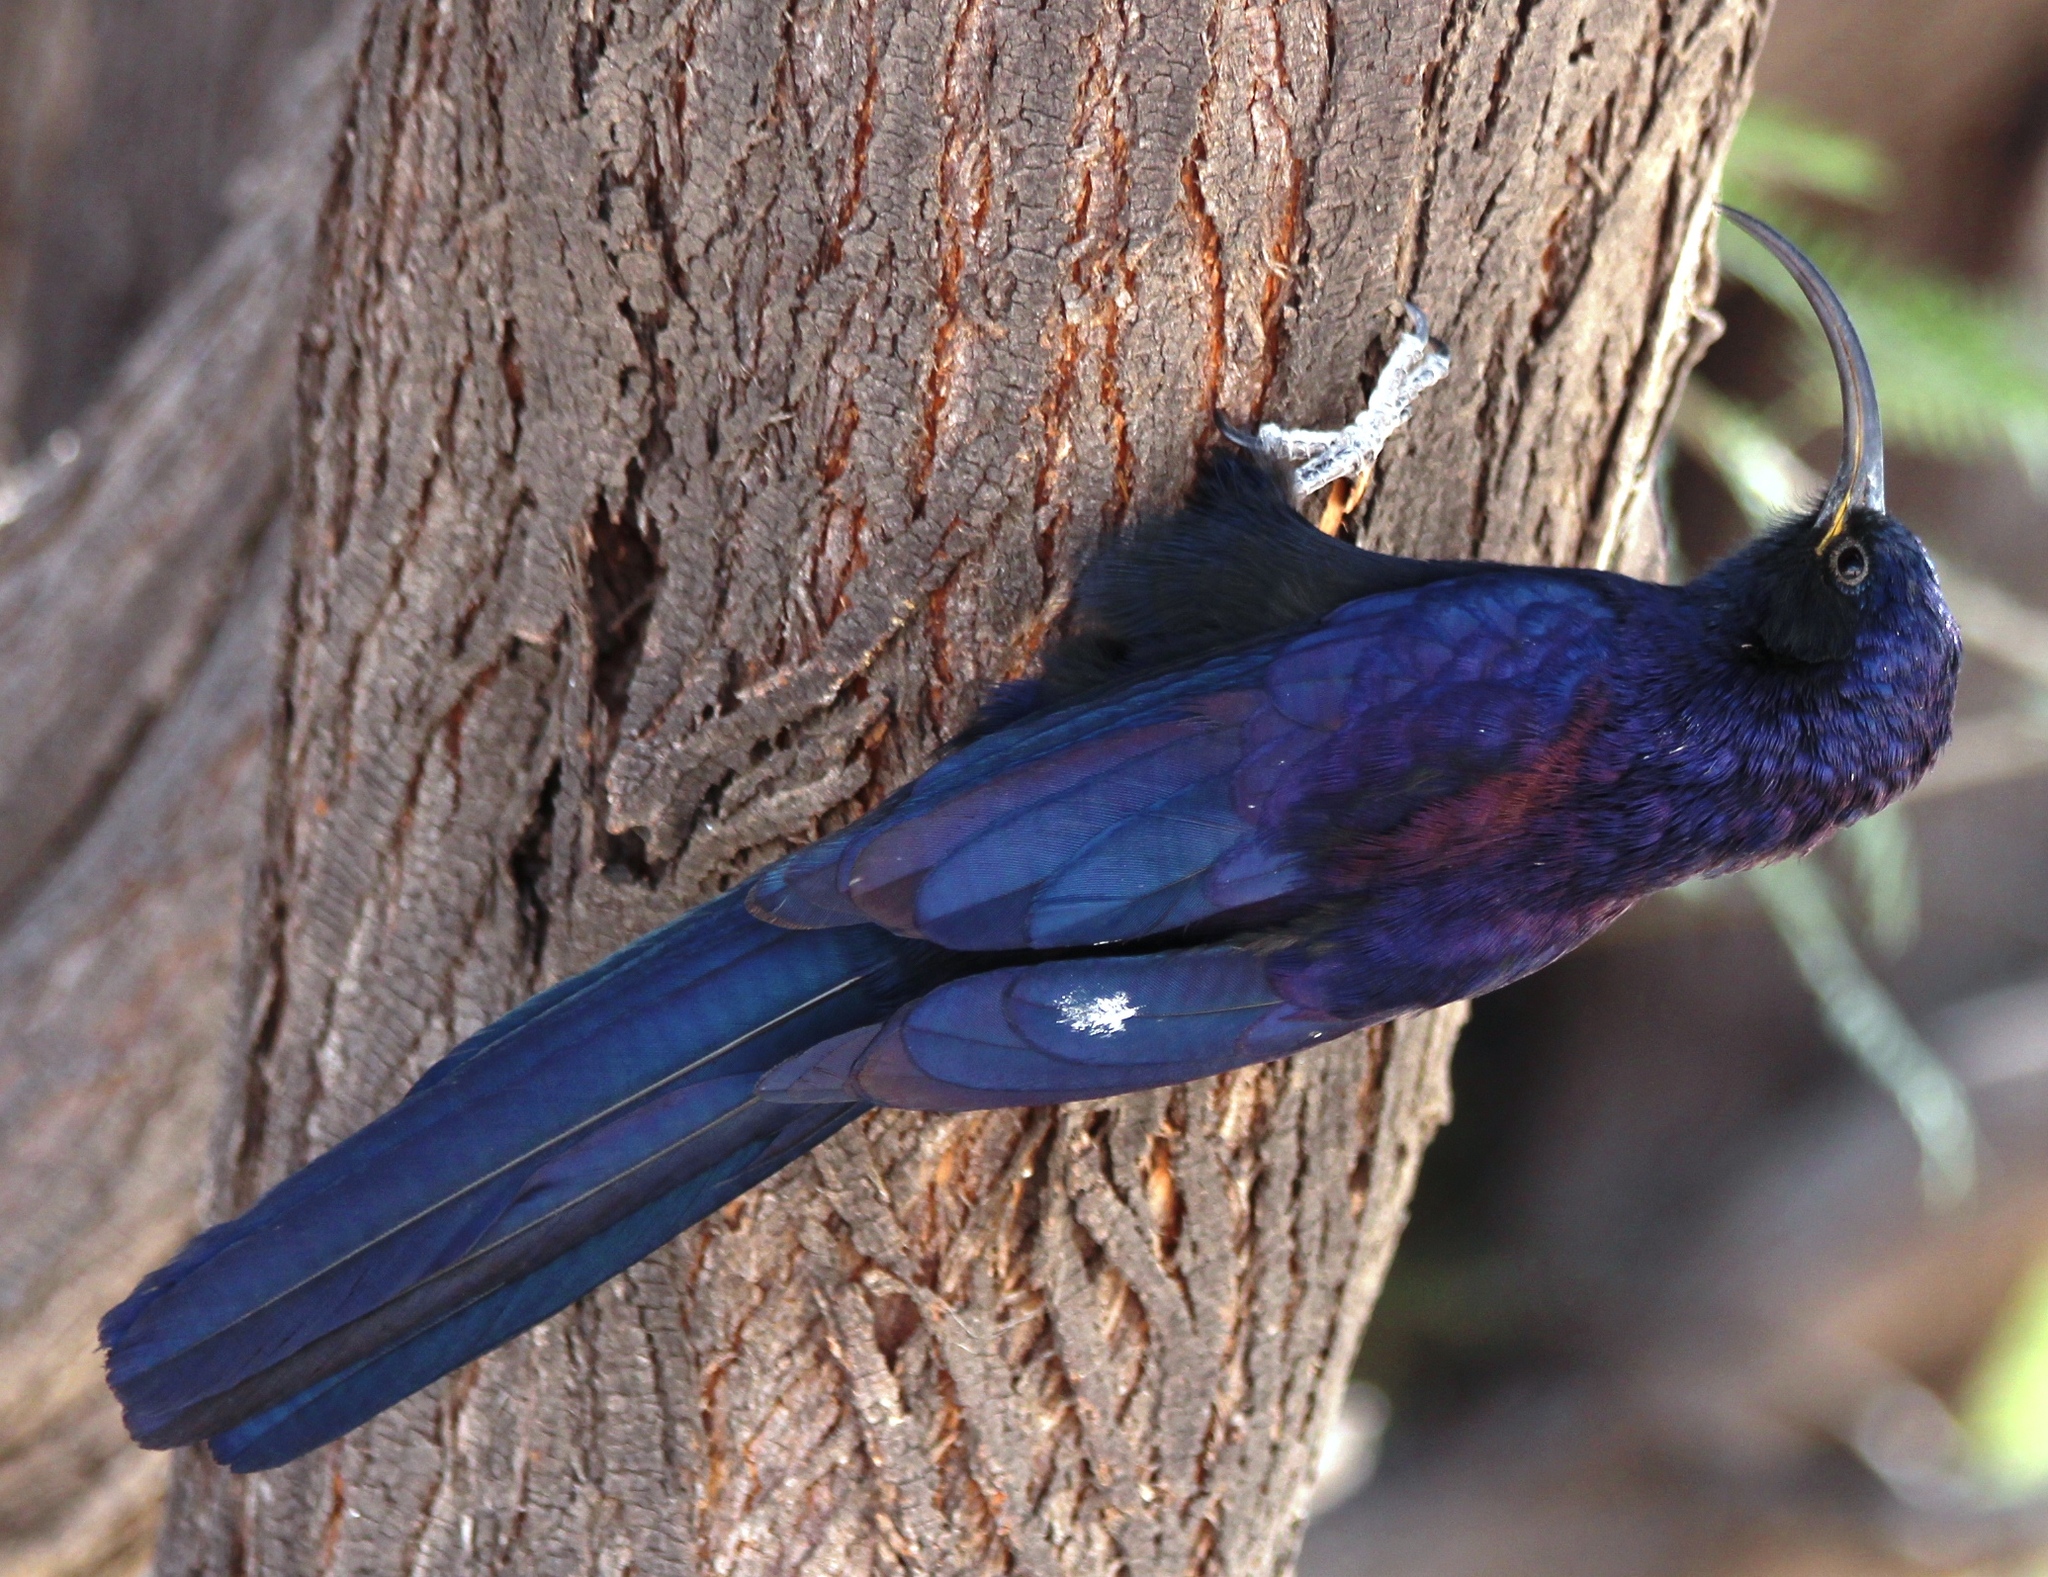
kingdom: Animalia
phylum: Chordata
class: Aves
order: Bucerotiformes
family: Phoeniculidae
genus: Rhinopomastus
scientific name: Rhinopomastus cyanomelas
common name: Common scimitarbill
